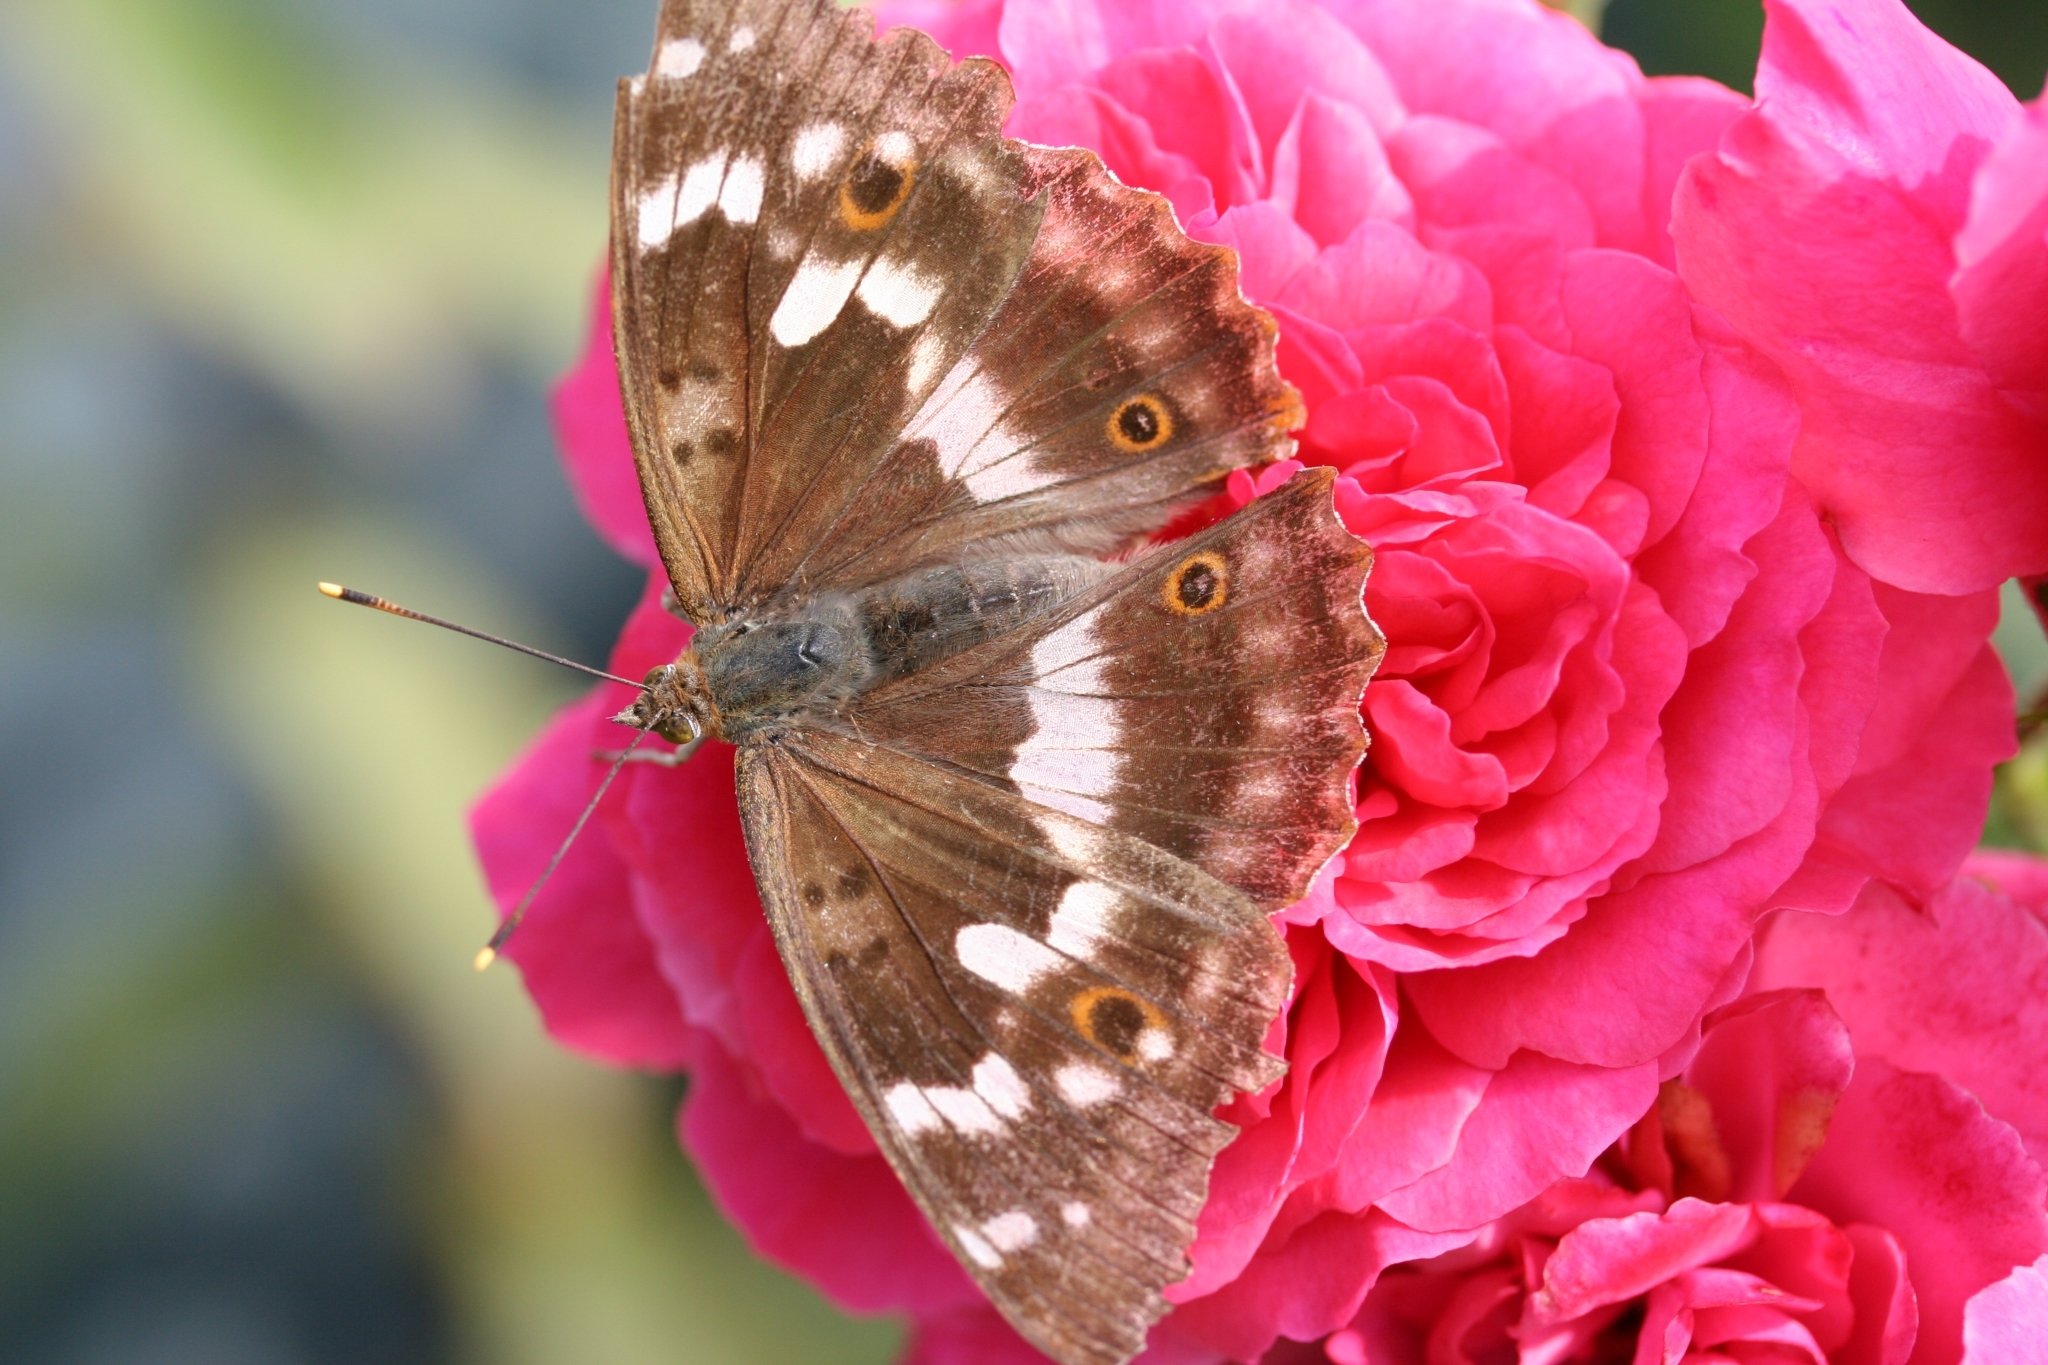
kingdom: Animalia
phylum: Arthropoda
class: Insecta
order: Lepidoptera
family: Nymphalidae
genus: Apatura
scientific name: Apatura ilia
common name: Lesser purple emperor
